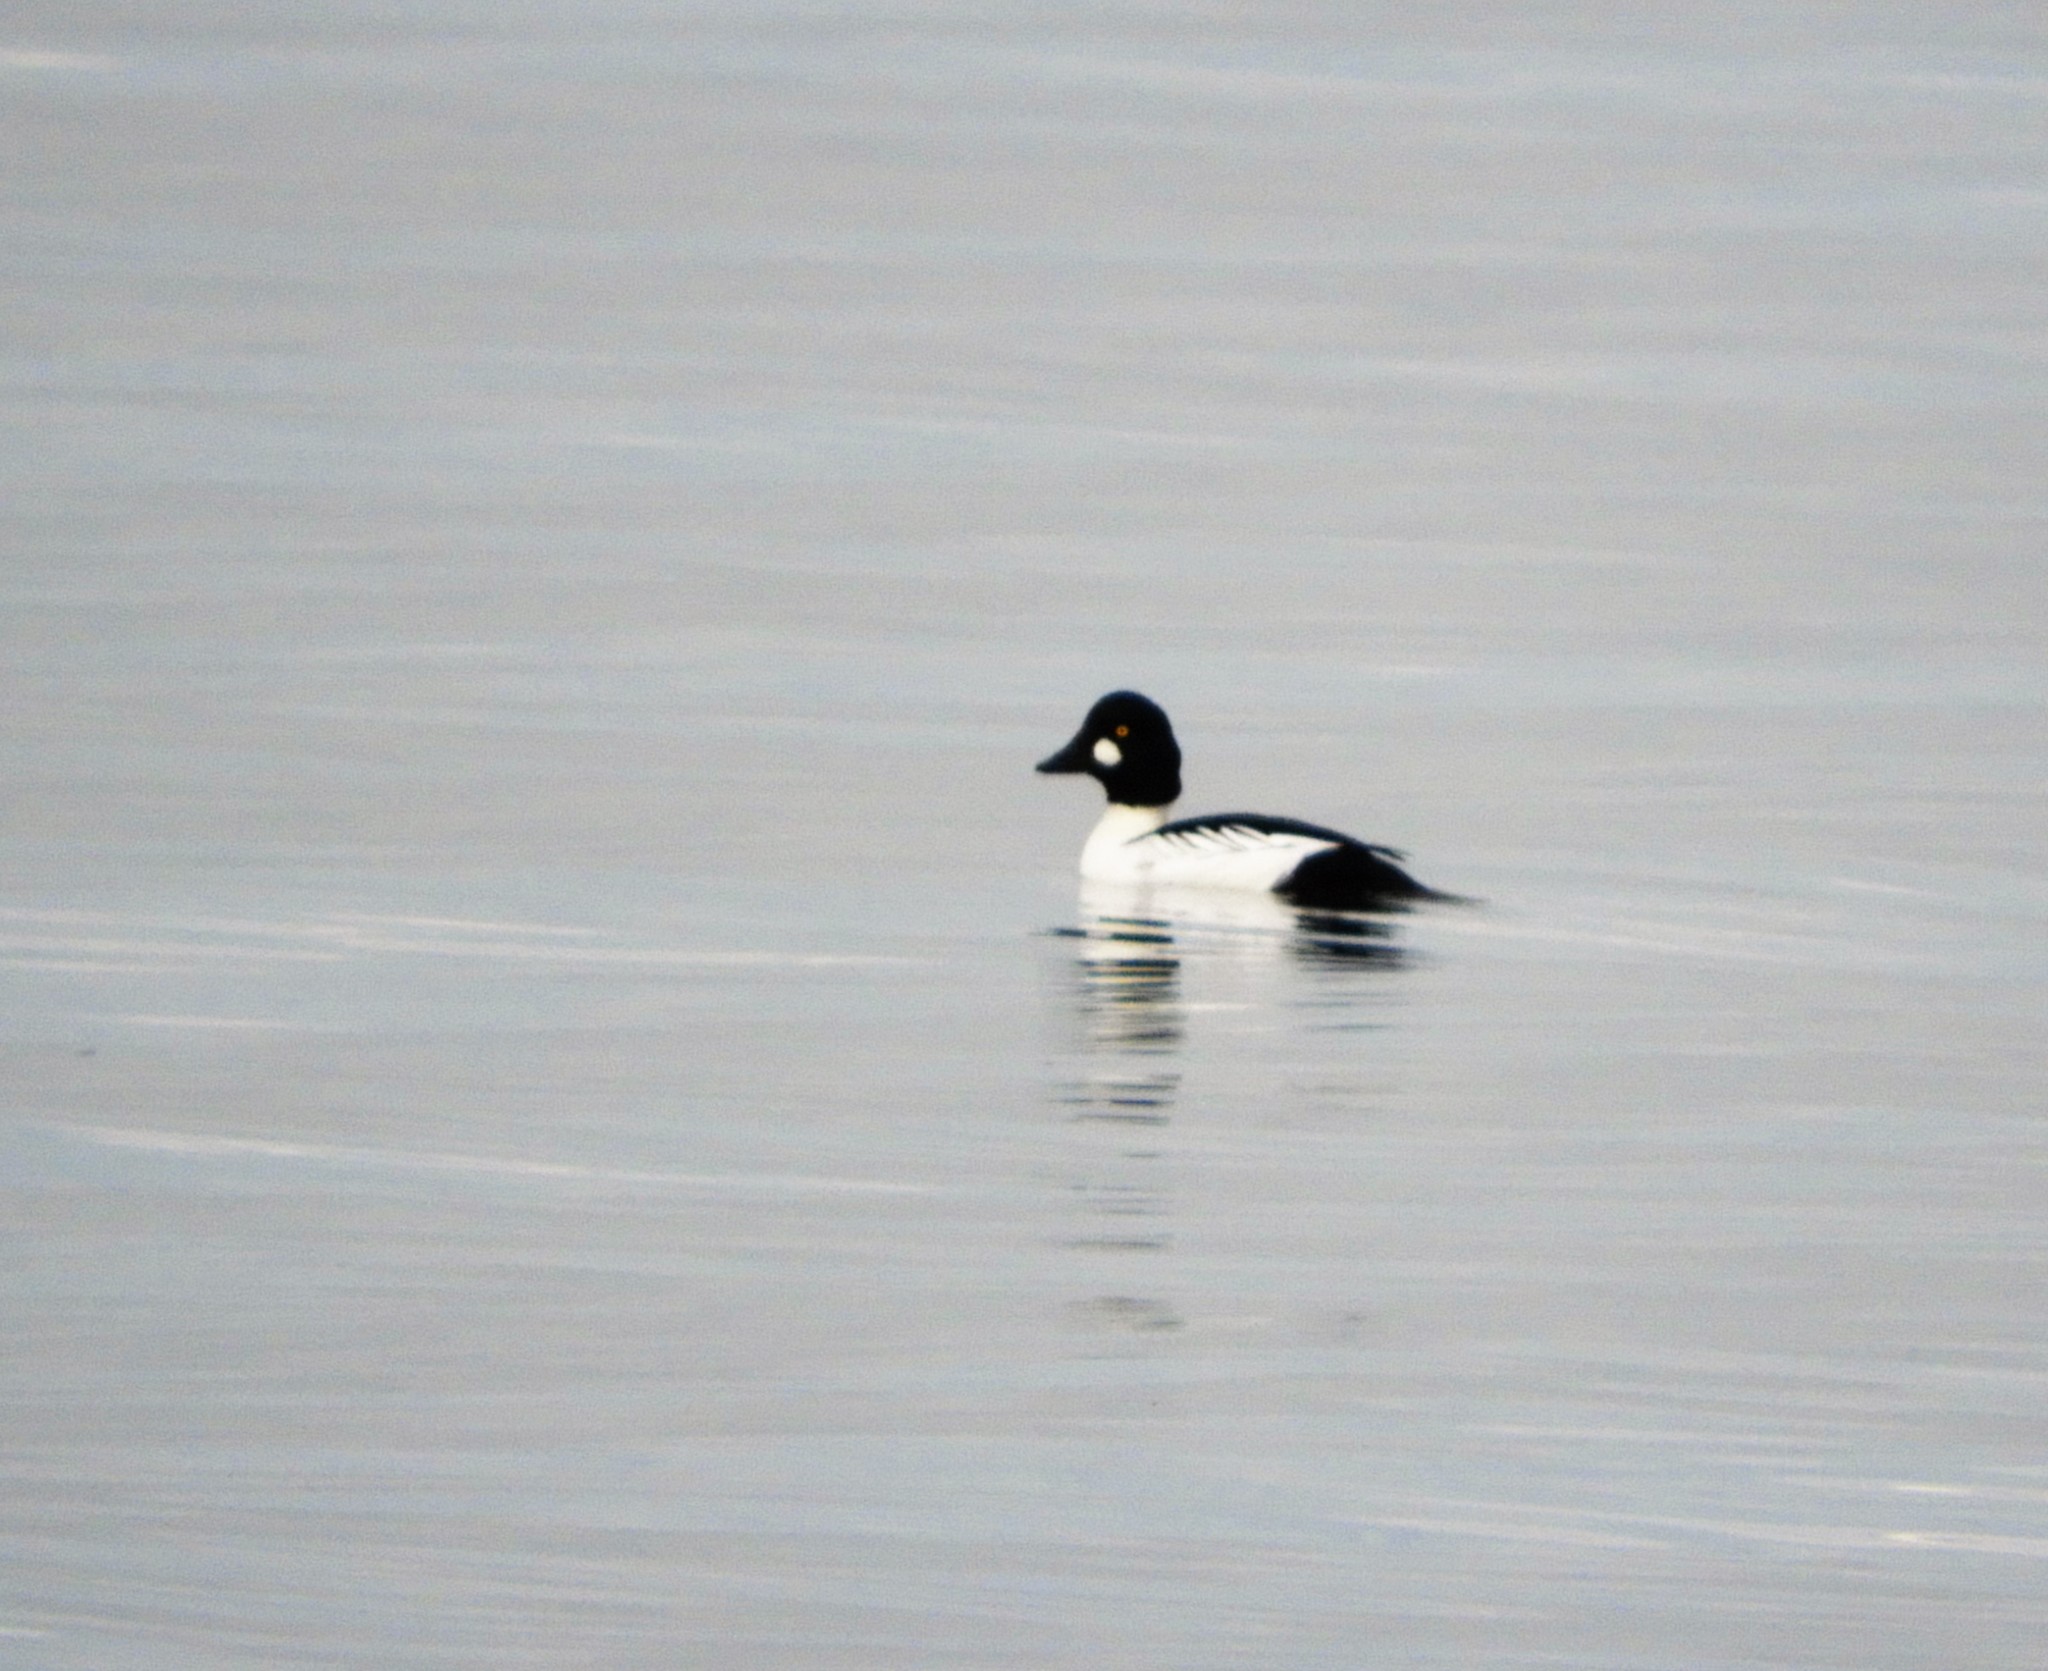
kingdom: Animalia
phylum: Chordata
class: Aves
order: Anseriformes
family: Anatidae
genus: Bucephala
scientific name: Bucephala clangula
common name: Common goldeneye
